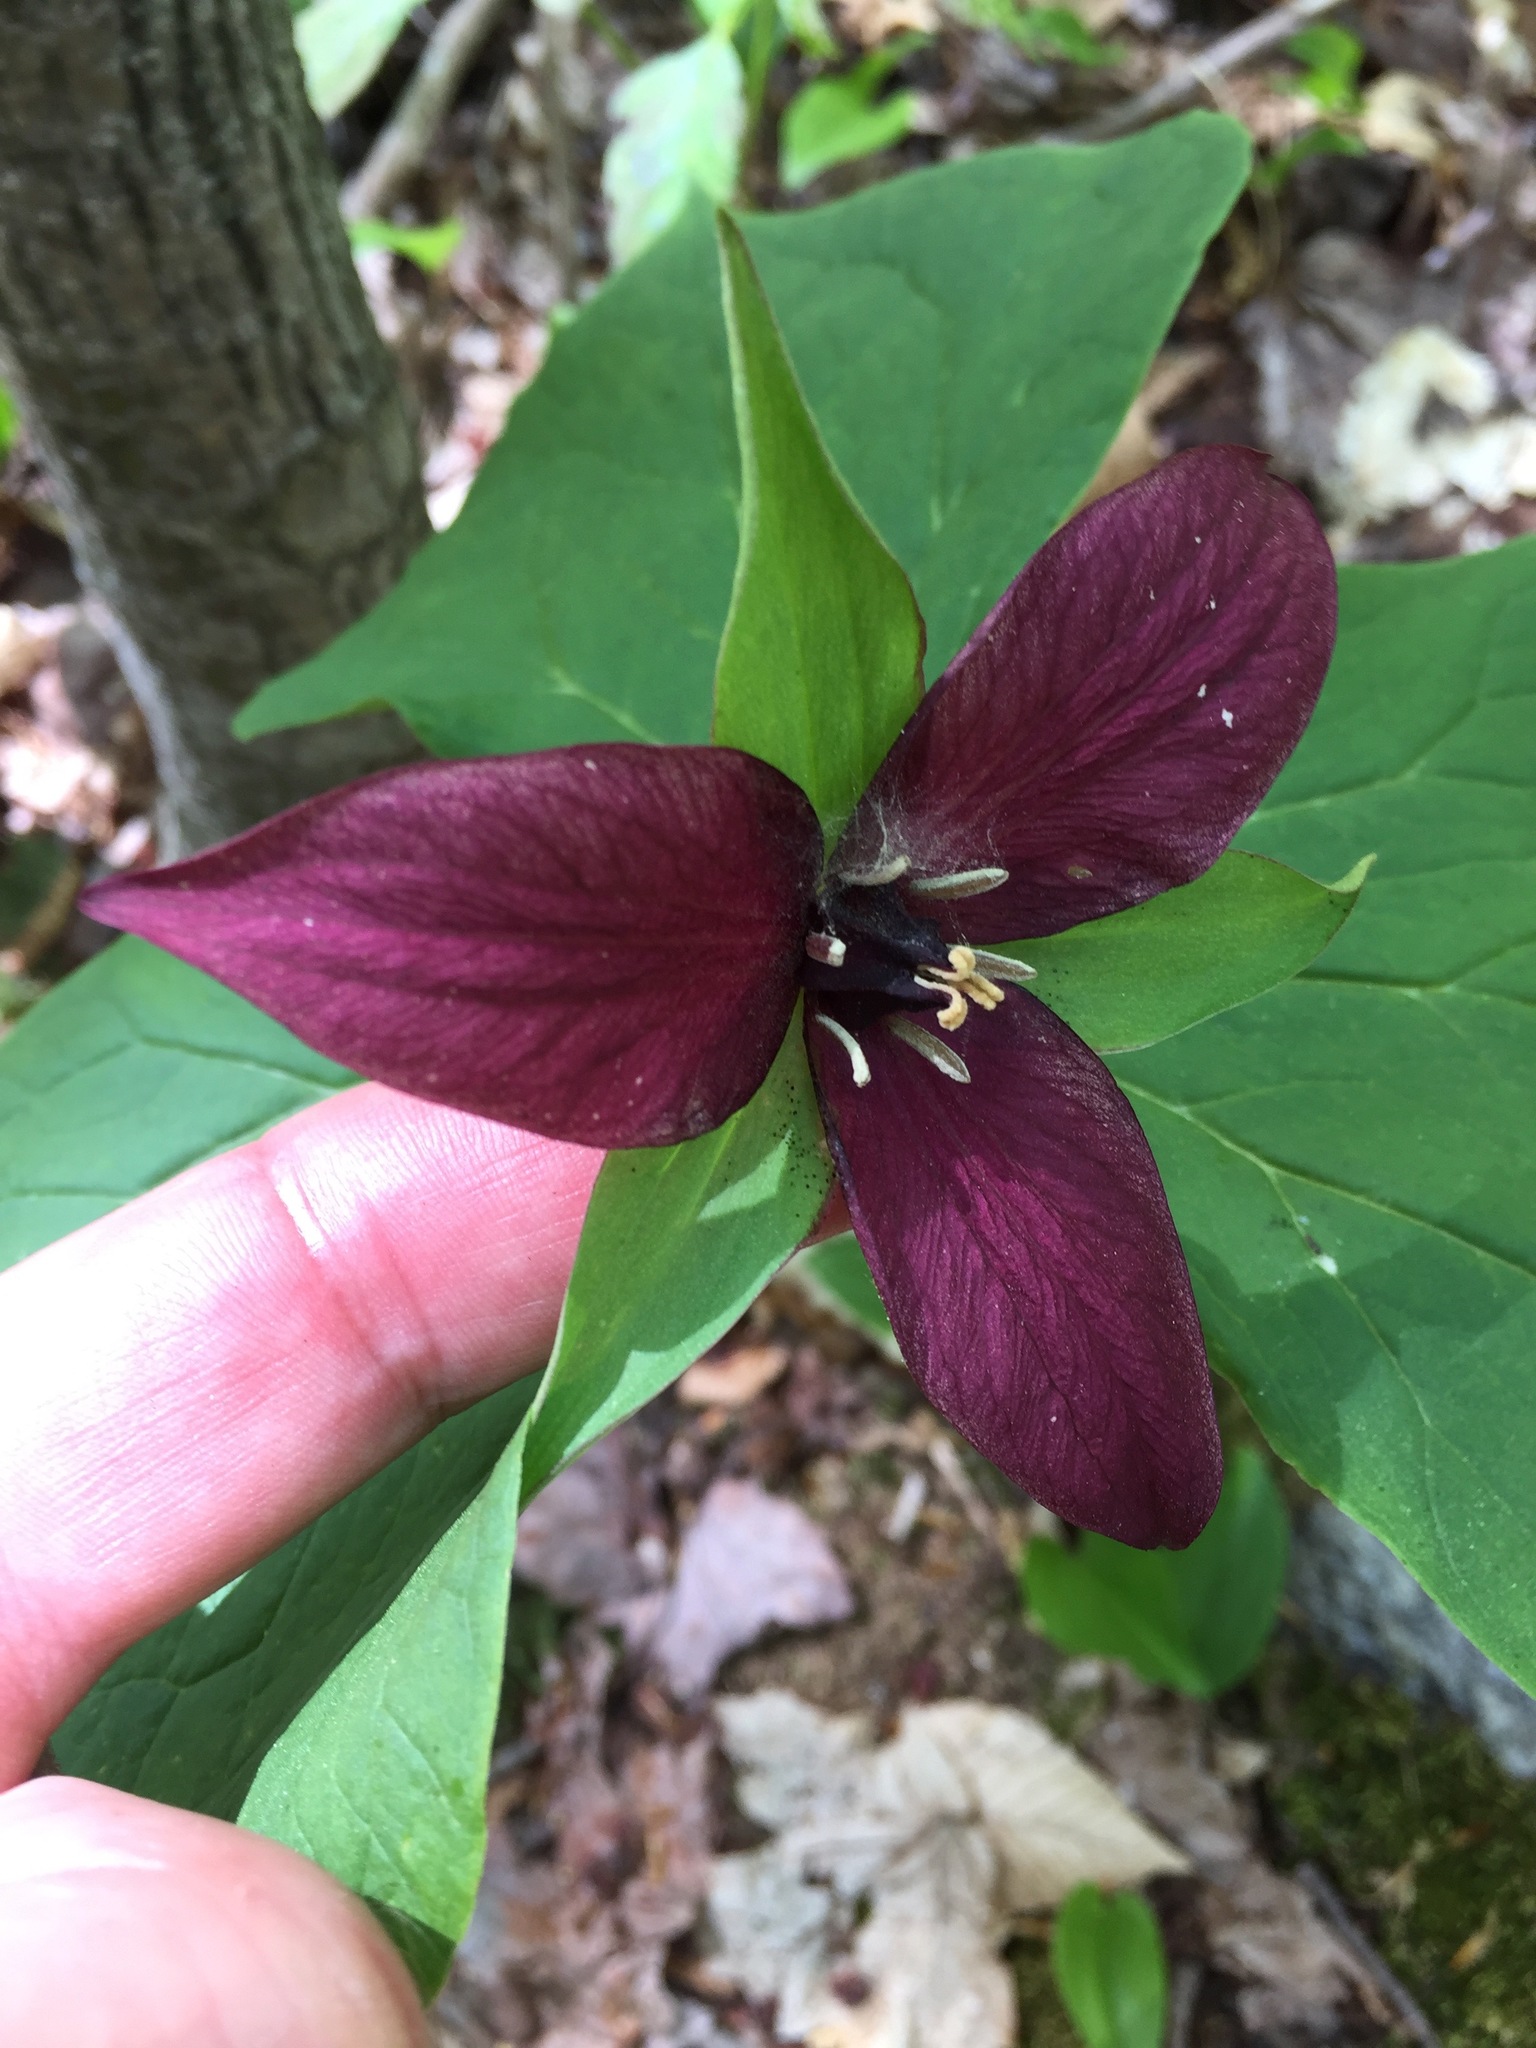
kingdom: Plantae
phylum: Tracheophyta
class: Liliopsida
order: Liliales
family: Melanthiaceae
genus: Trillium
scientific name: Trillium erectum
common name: Purple trillium
